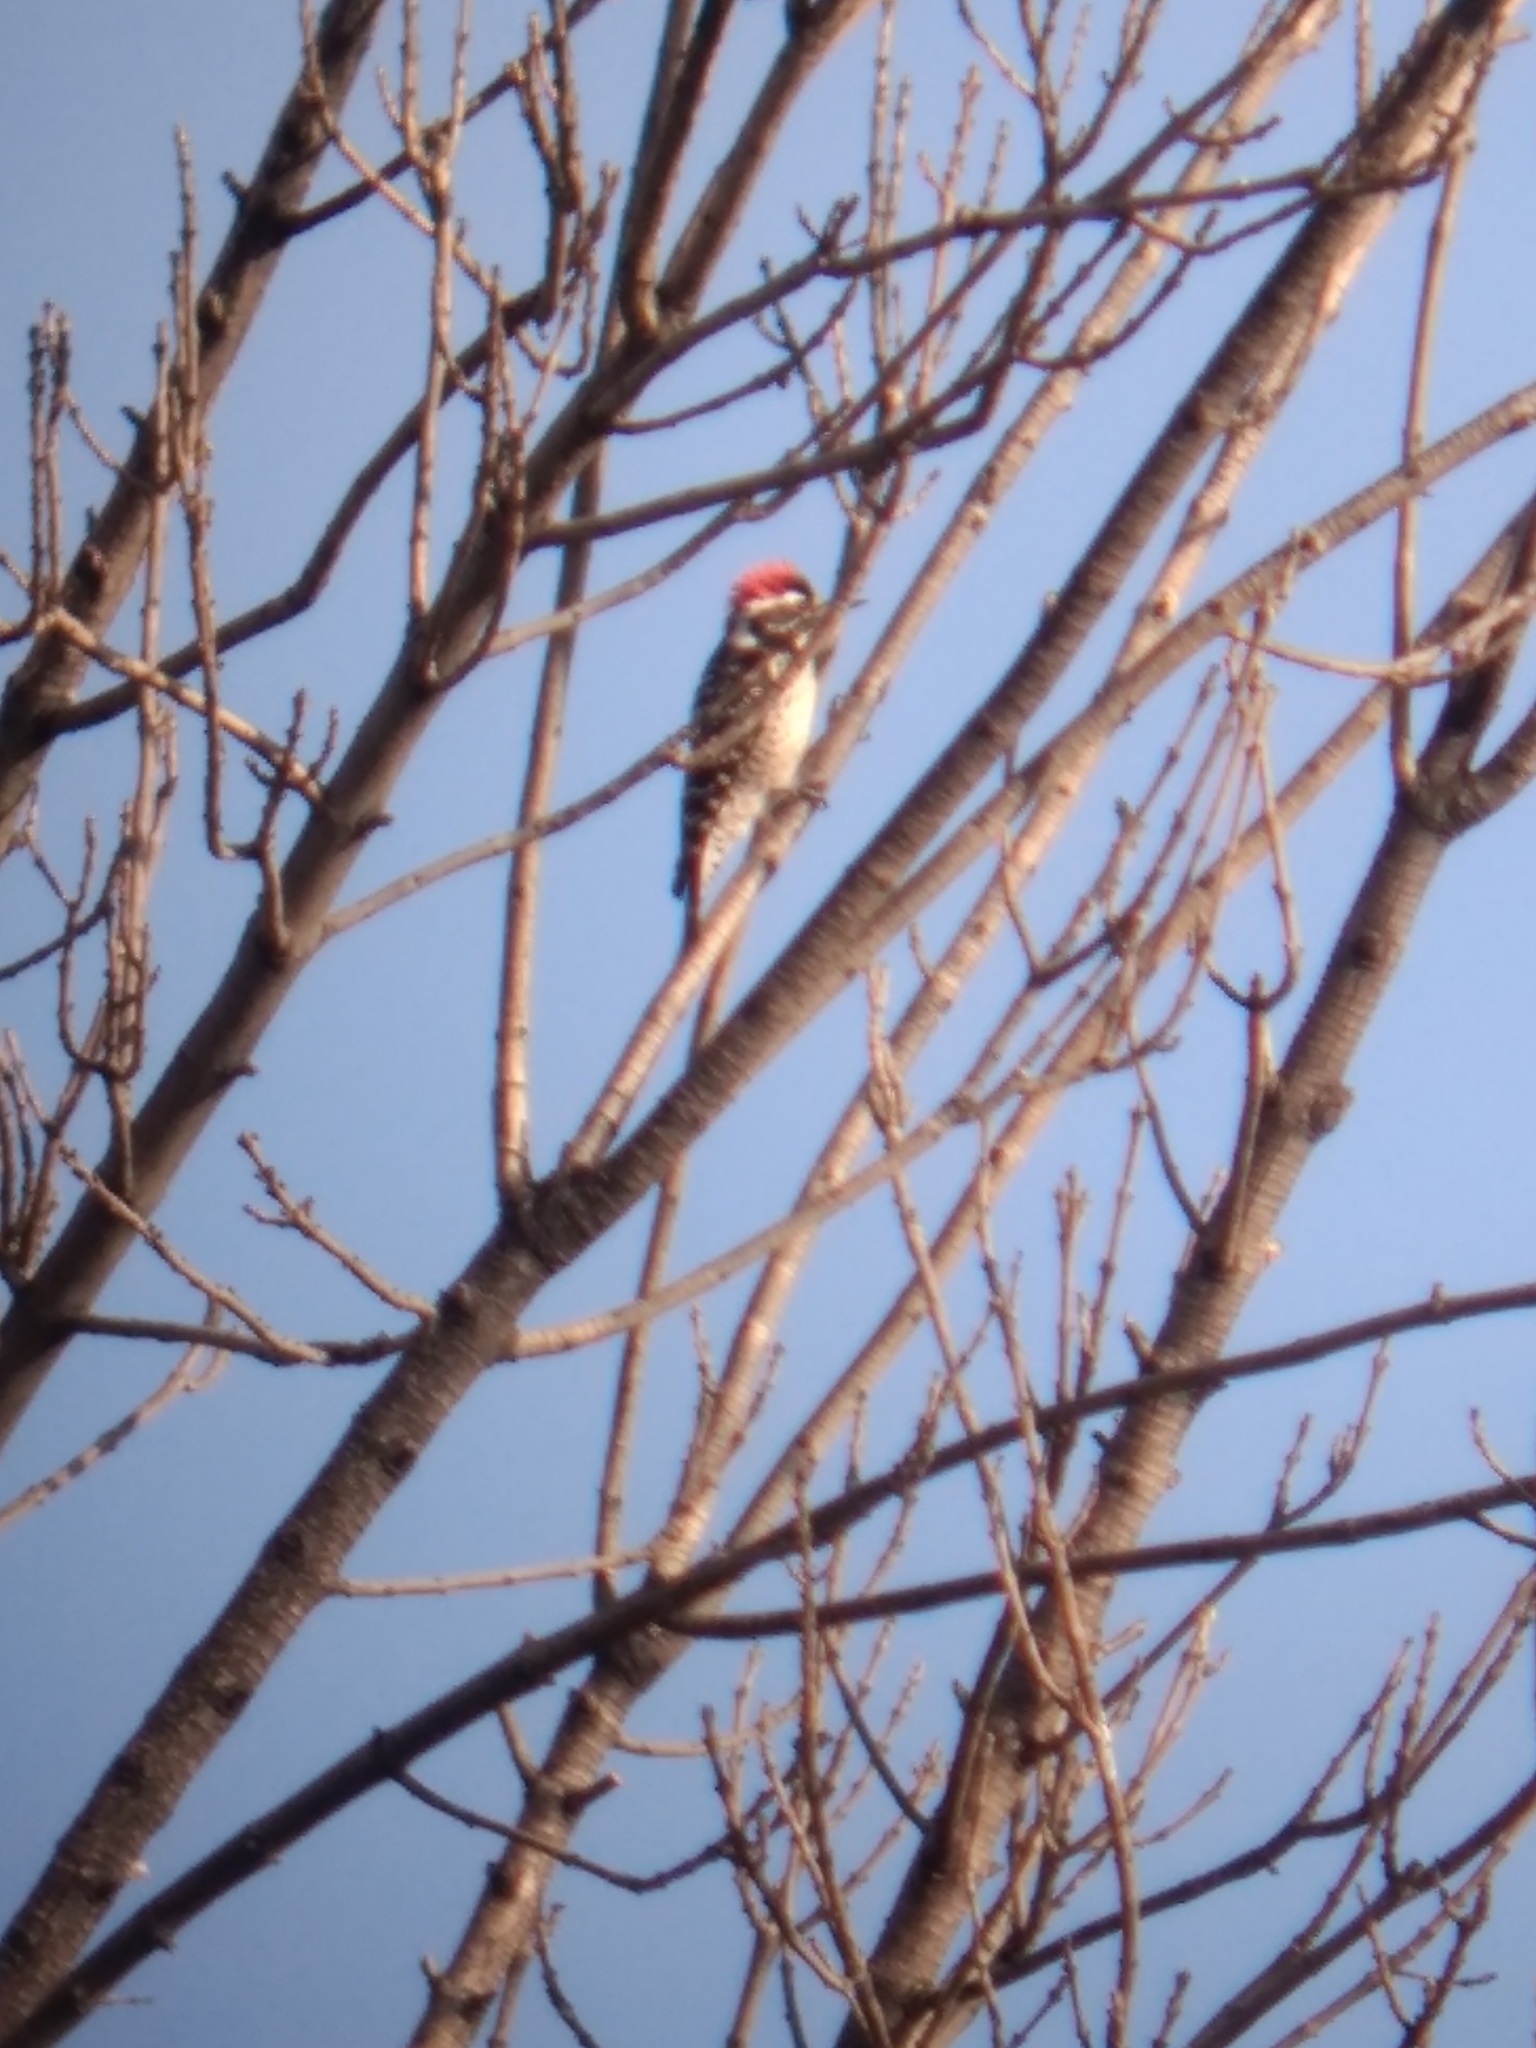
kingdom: Animalia
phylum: Chordata
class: Aves
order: Piciformes
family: Picidae
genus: Dryobates
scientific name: Dryobates nuttallii
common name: Nuttall's woodpecker
